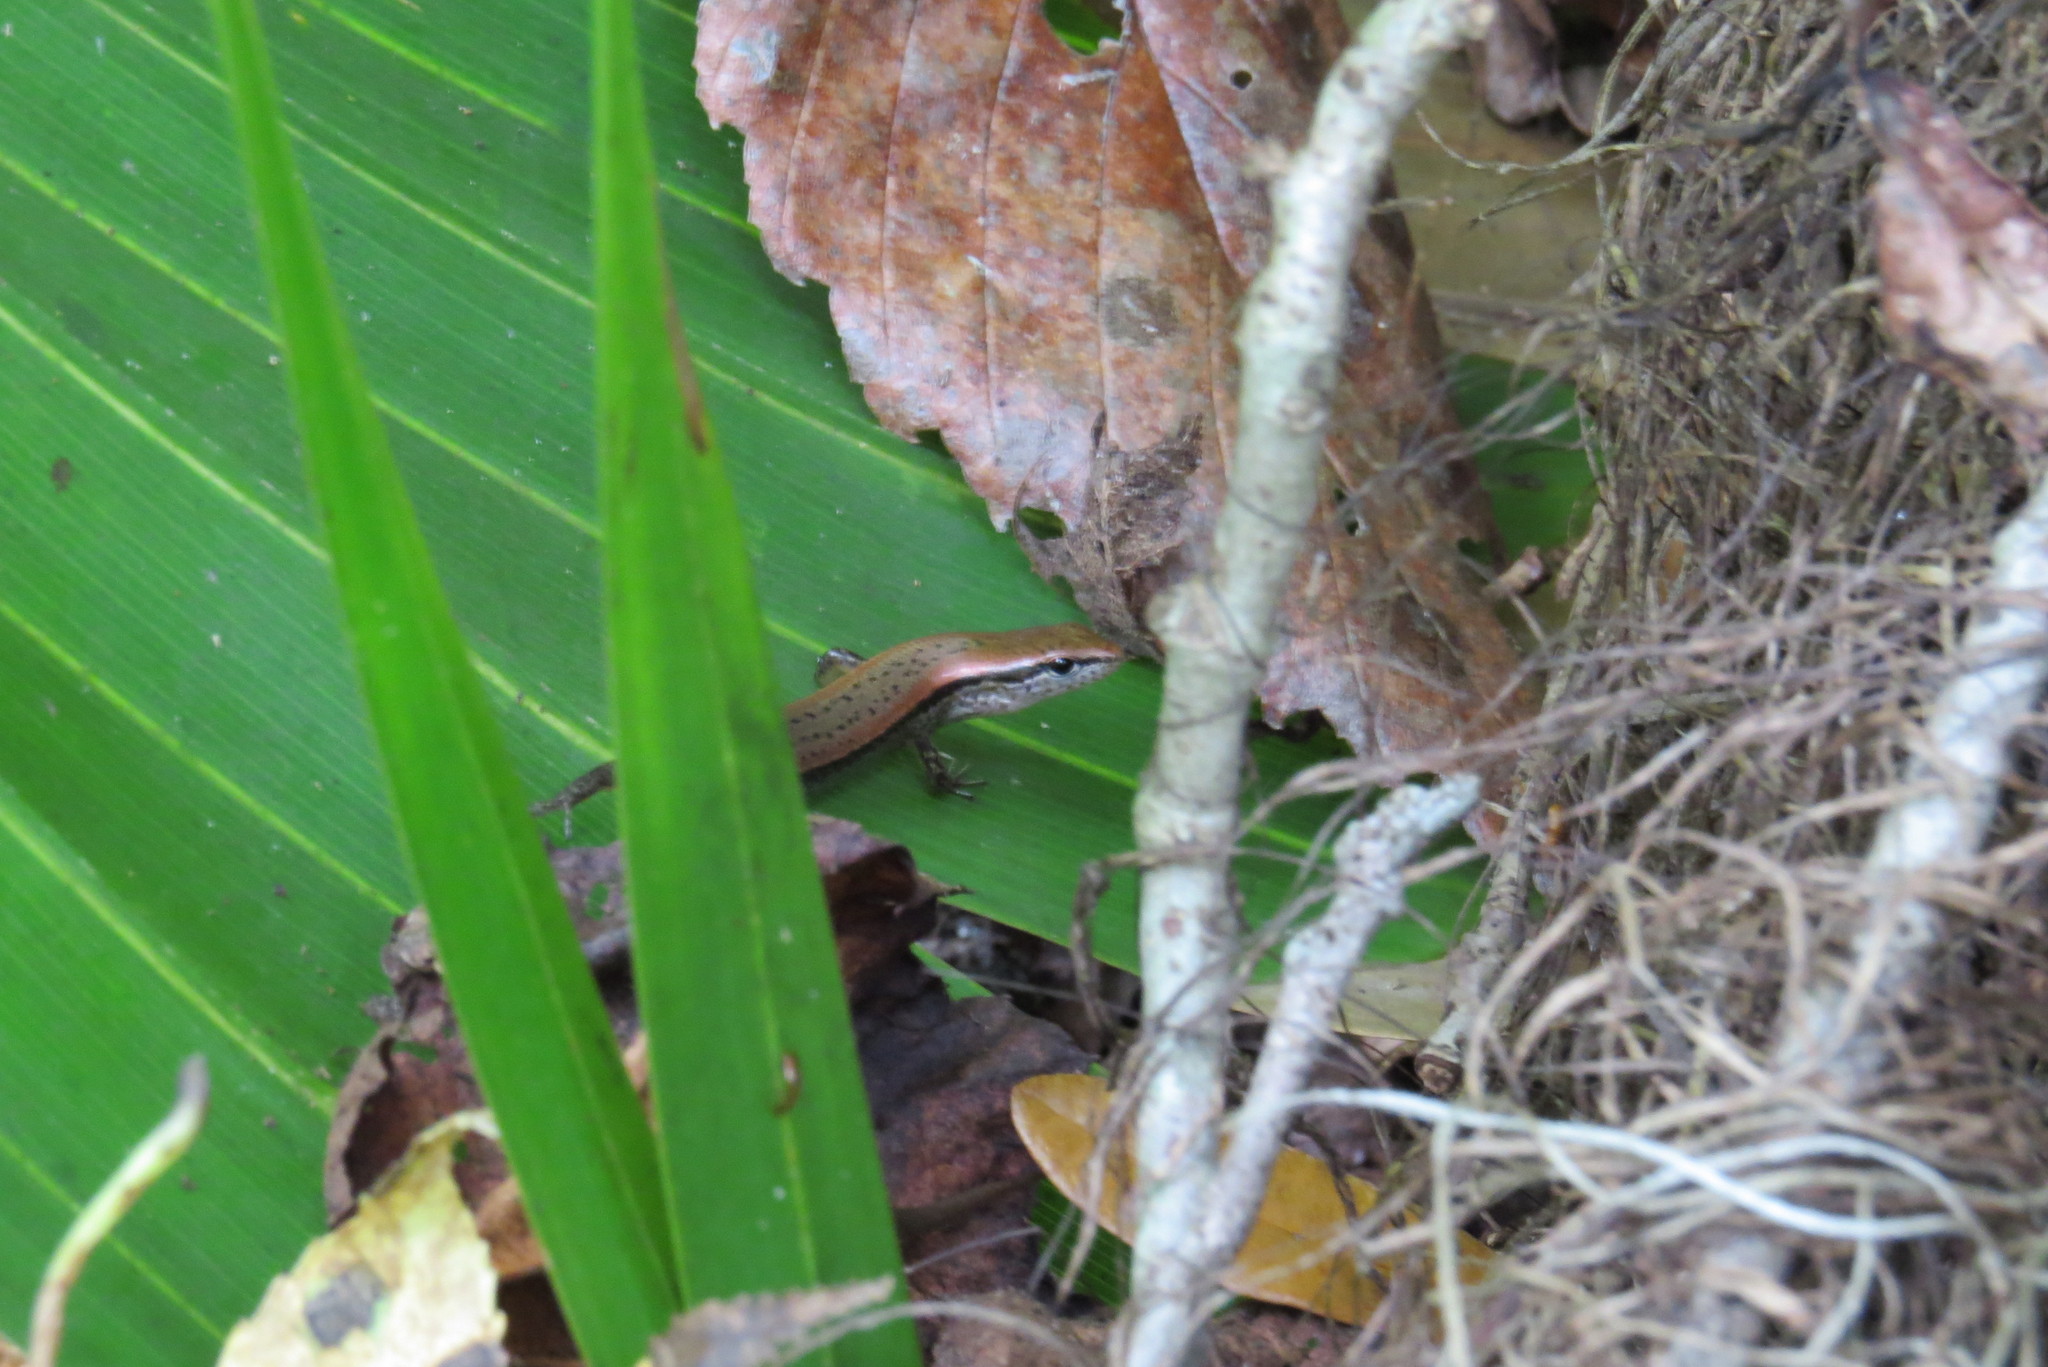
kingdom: Animalia
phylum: Chordata
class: Squamata
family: Scincidae
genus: Scincella
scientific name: Scincella lateralis
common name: Ground skink
